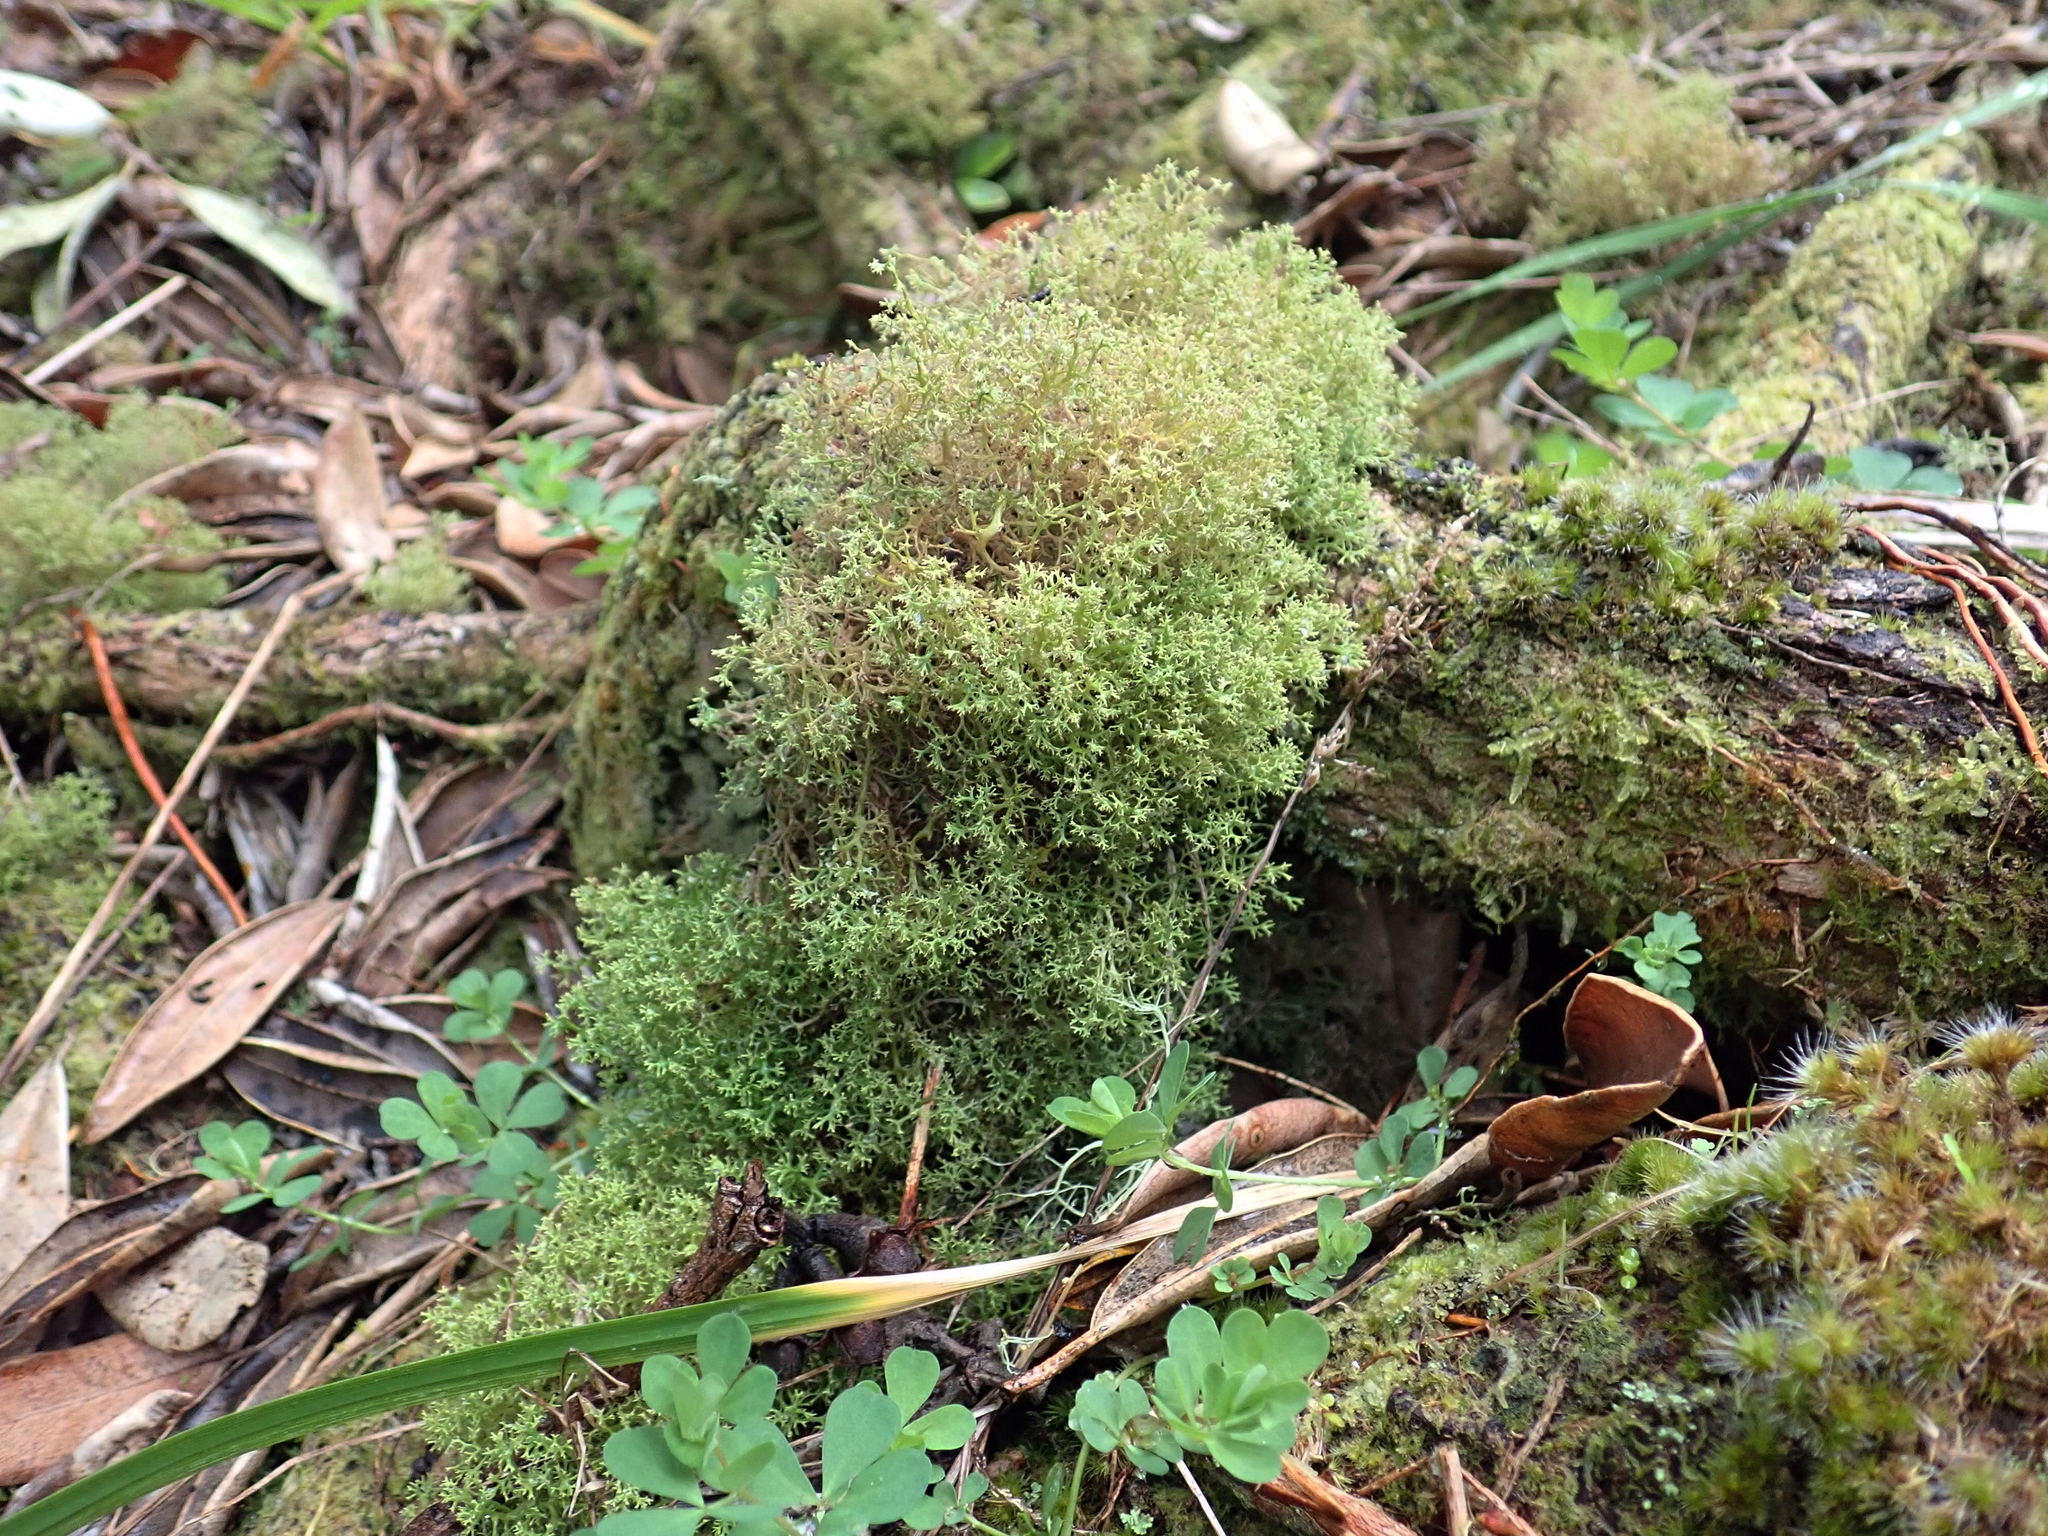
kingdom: Fungi
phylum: Ascomycota
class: Lecanoromycetes
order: Lecanorales
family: Cladoniaceae
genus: Cladia
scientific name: Cladia inflata
